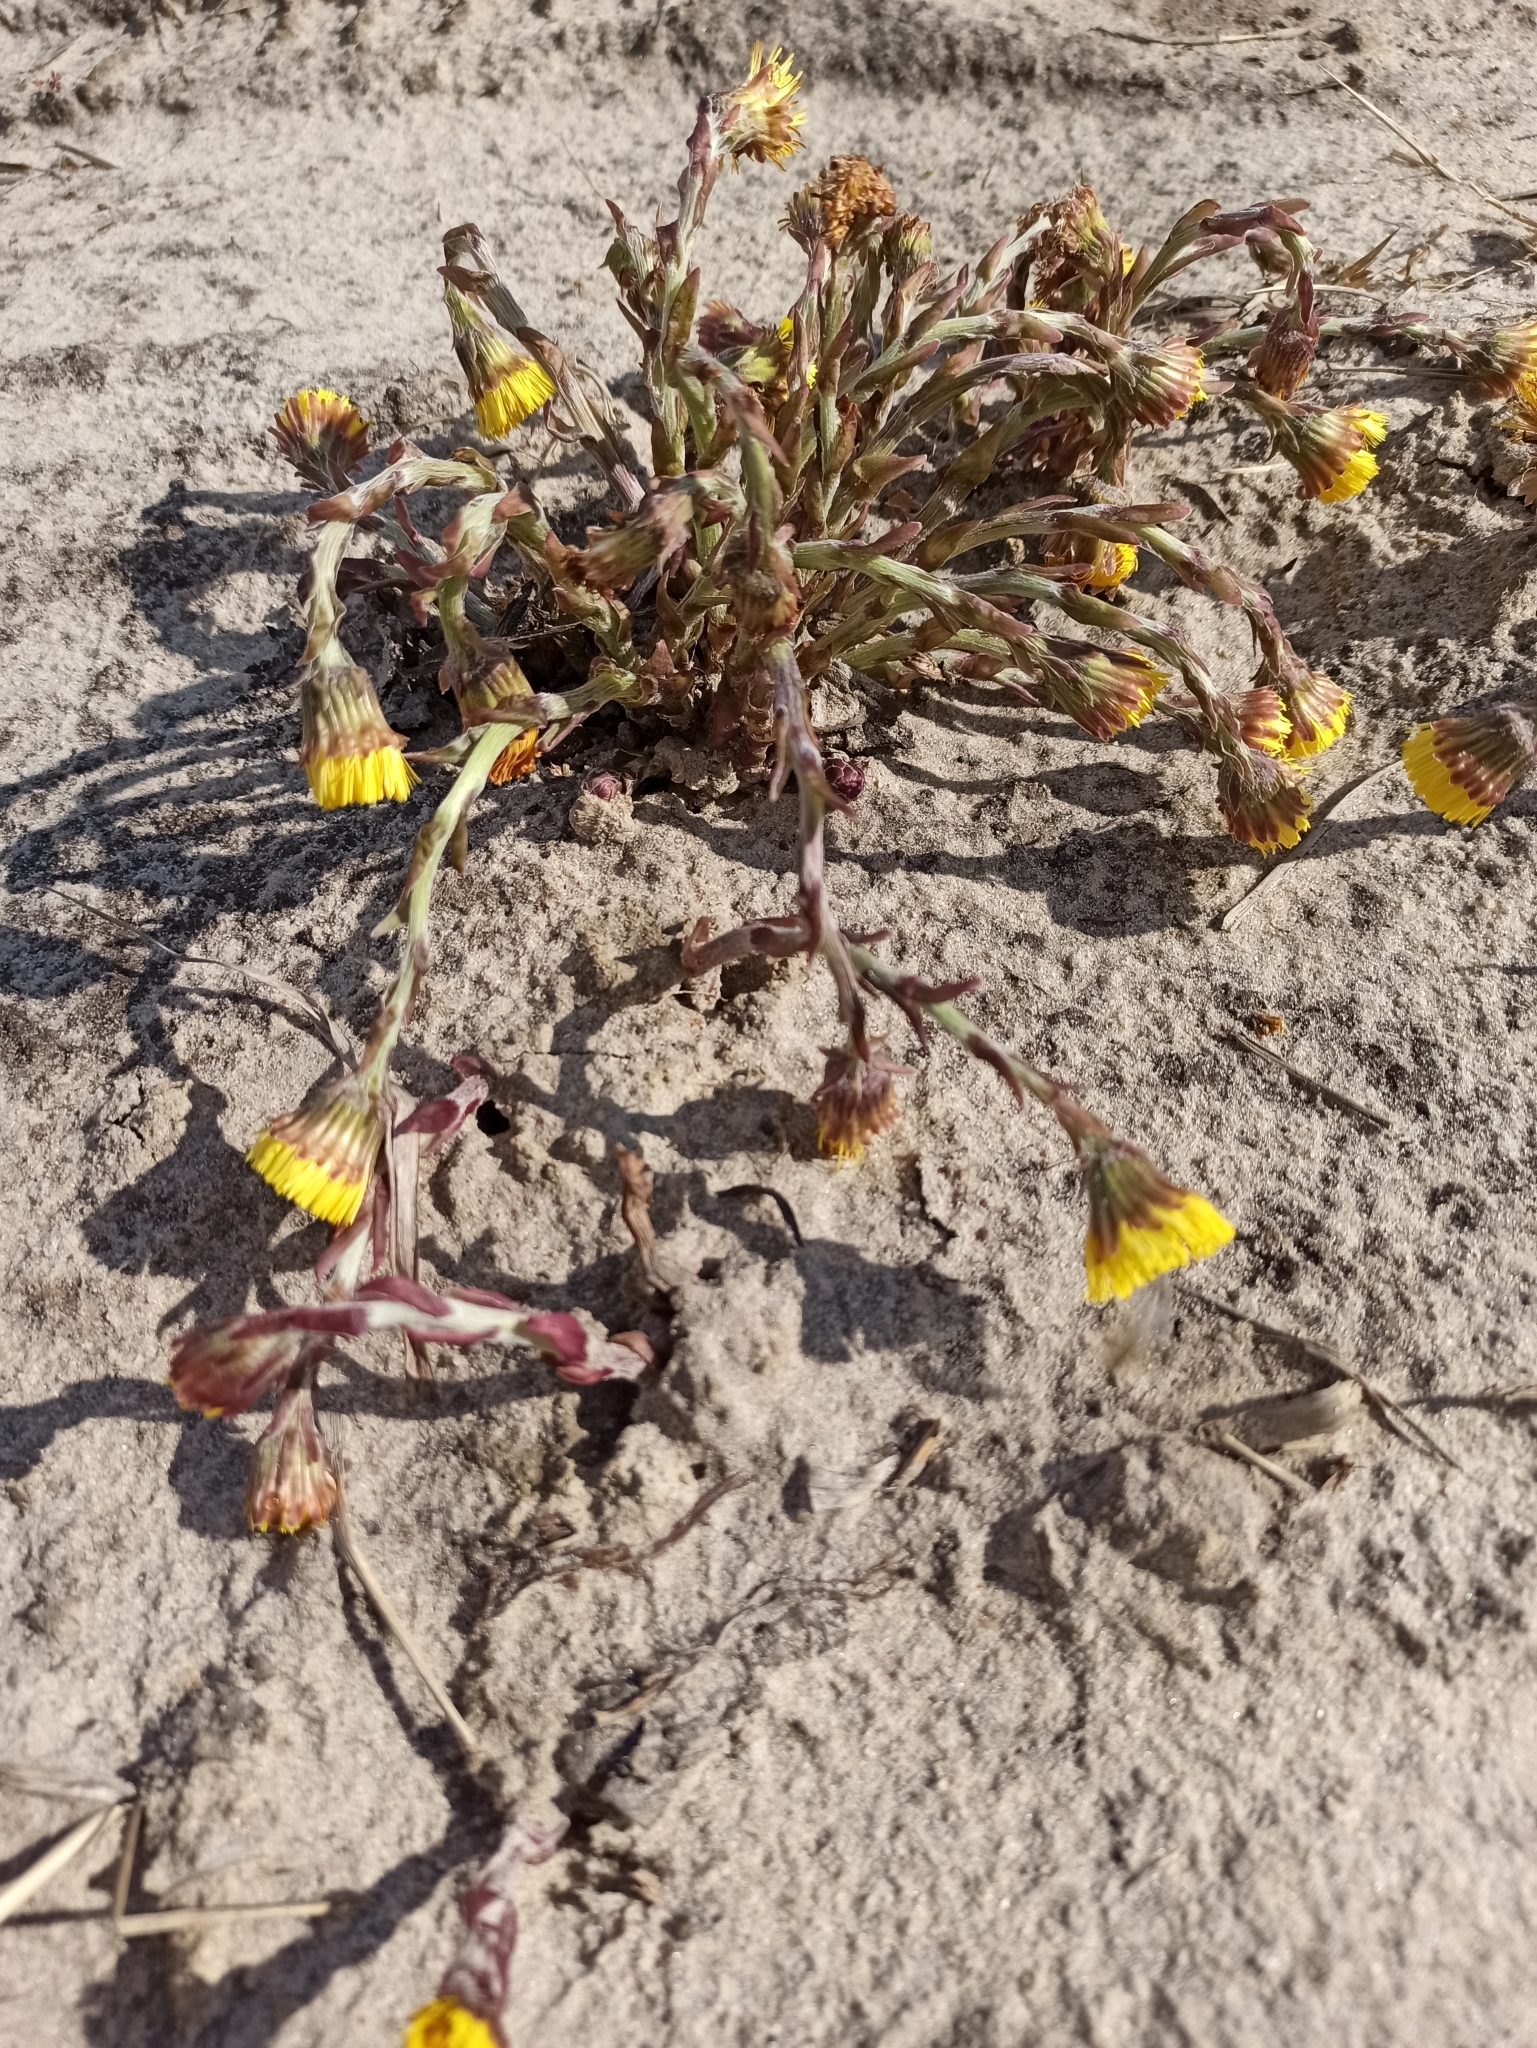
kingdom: Plantae
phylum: Tracheophyta
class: Magnoliopsida
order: Asterales
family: Asteraceae
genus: Tussilago
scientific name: Tussilago farfara
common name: Coltsfoot
